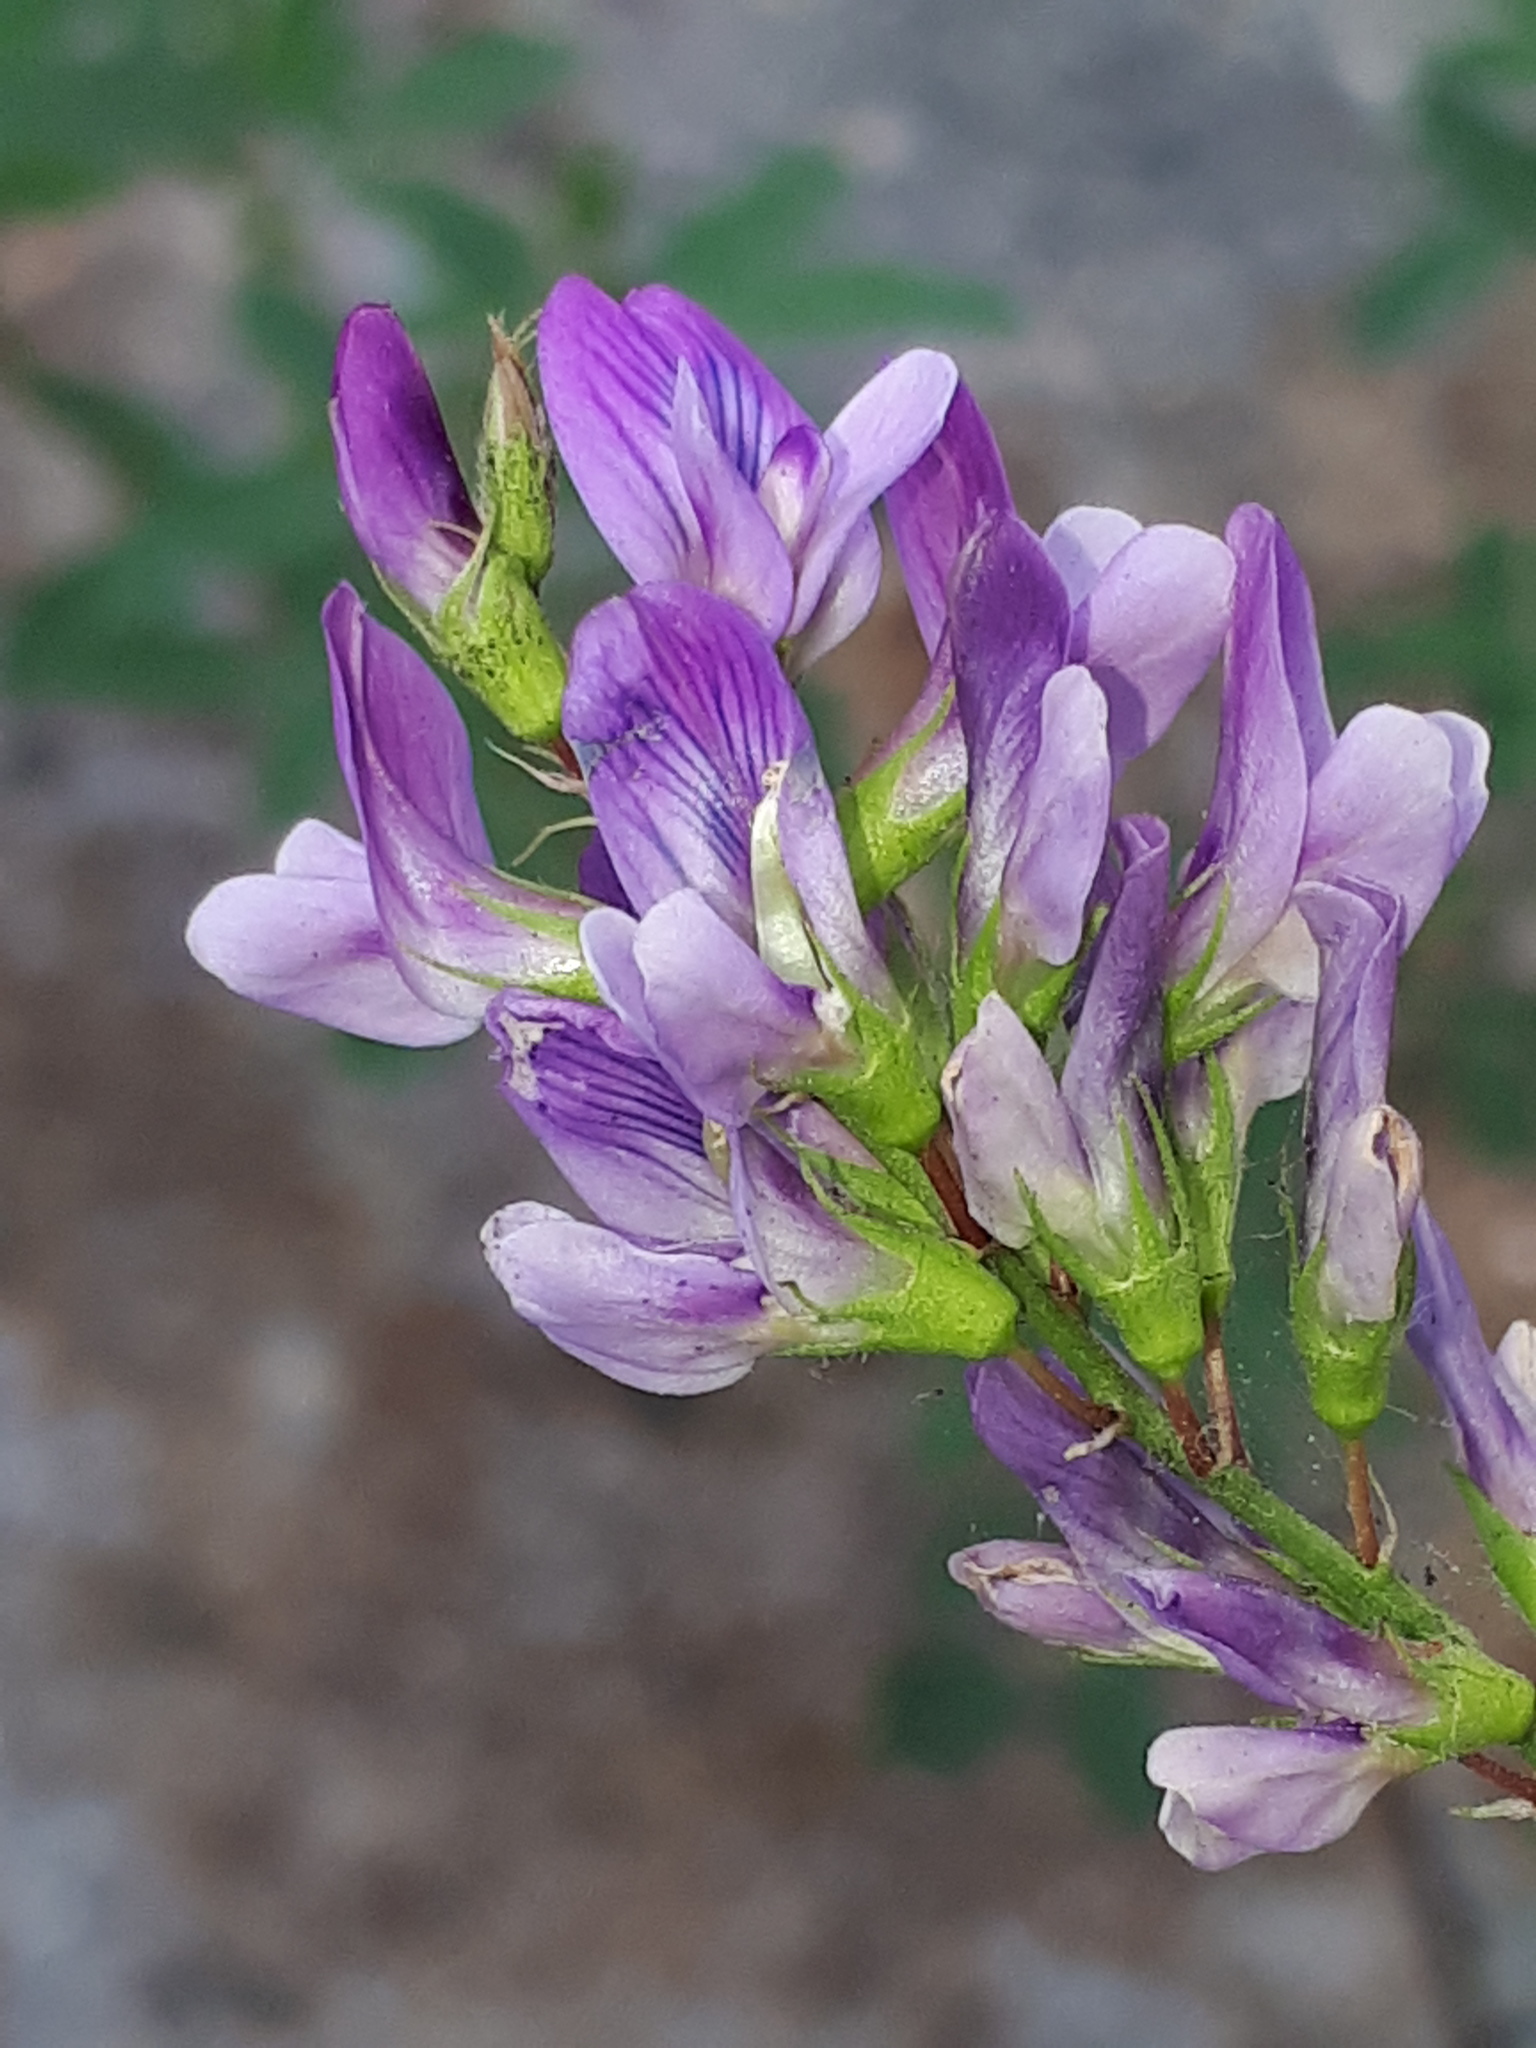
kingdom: Plantae
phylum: Tracheophyta
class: Magnoliopsida
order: Fabales
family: Fabaceae
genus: Medicago
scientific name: Medicago sativa
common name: Alfalfa
